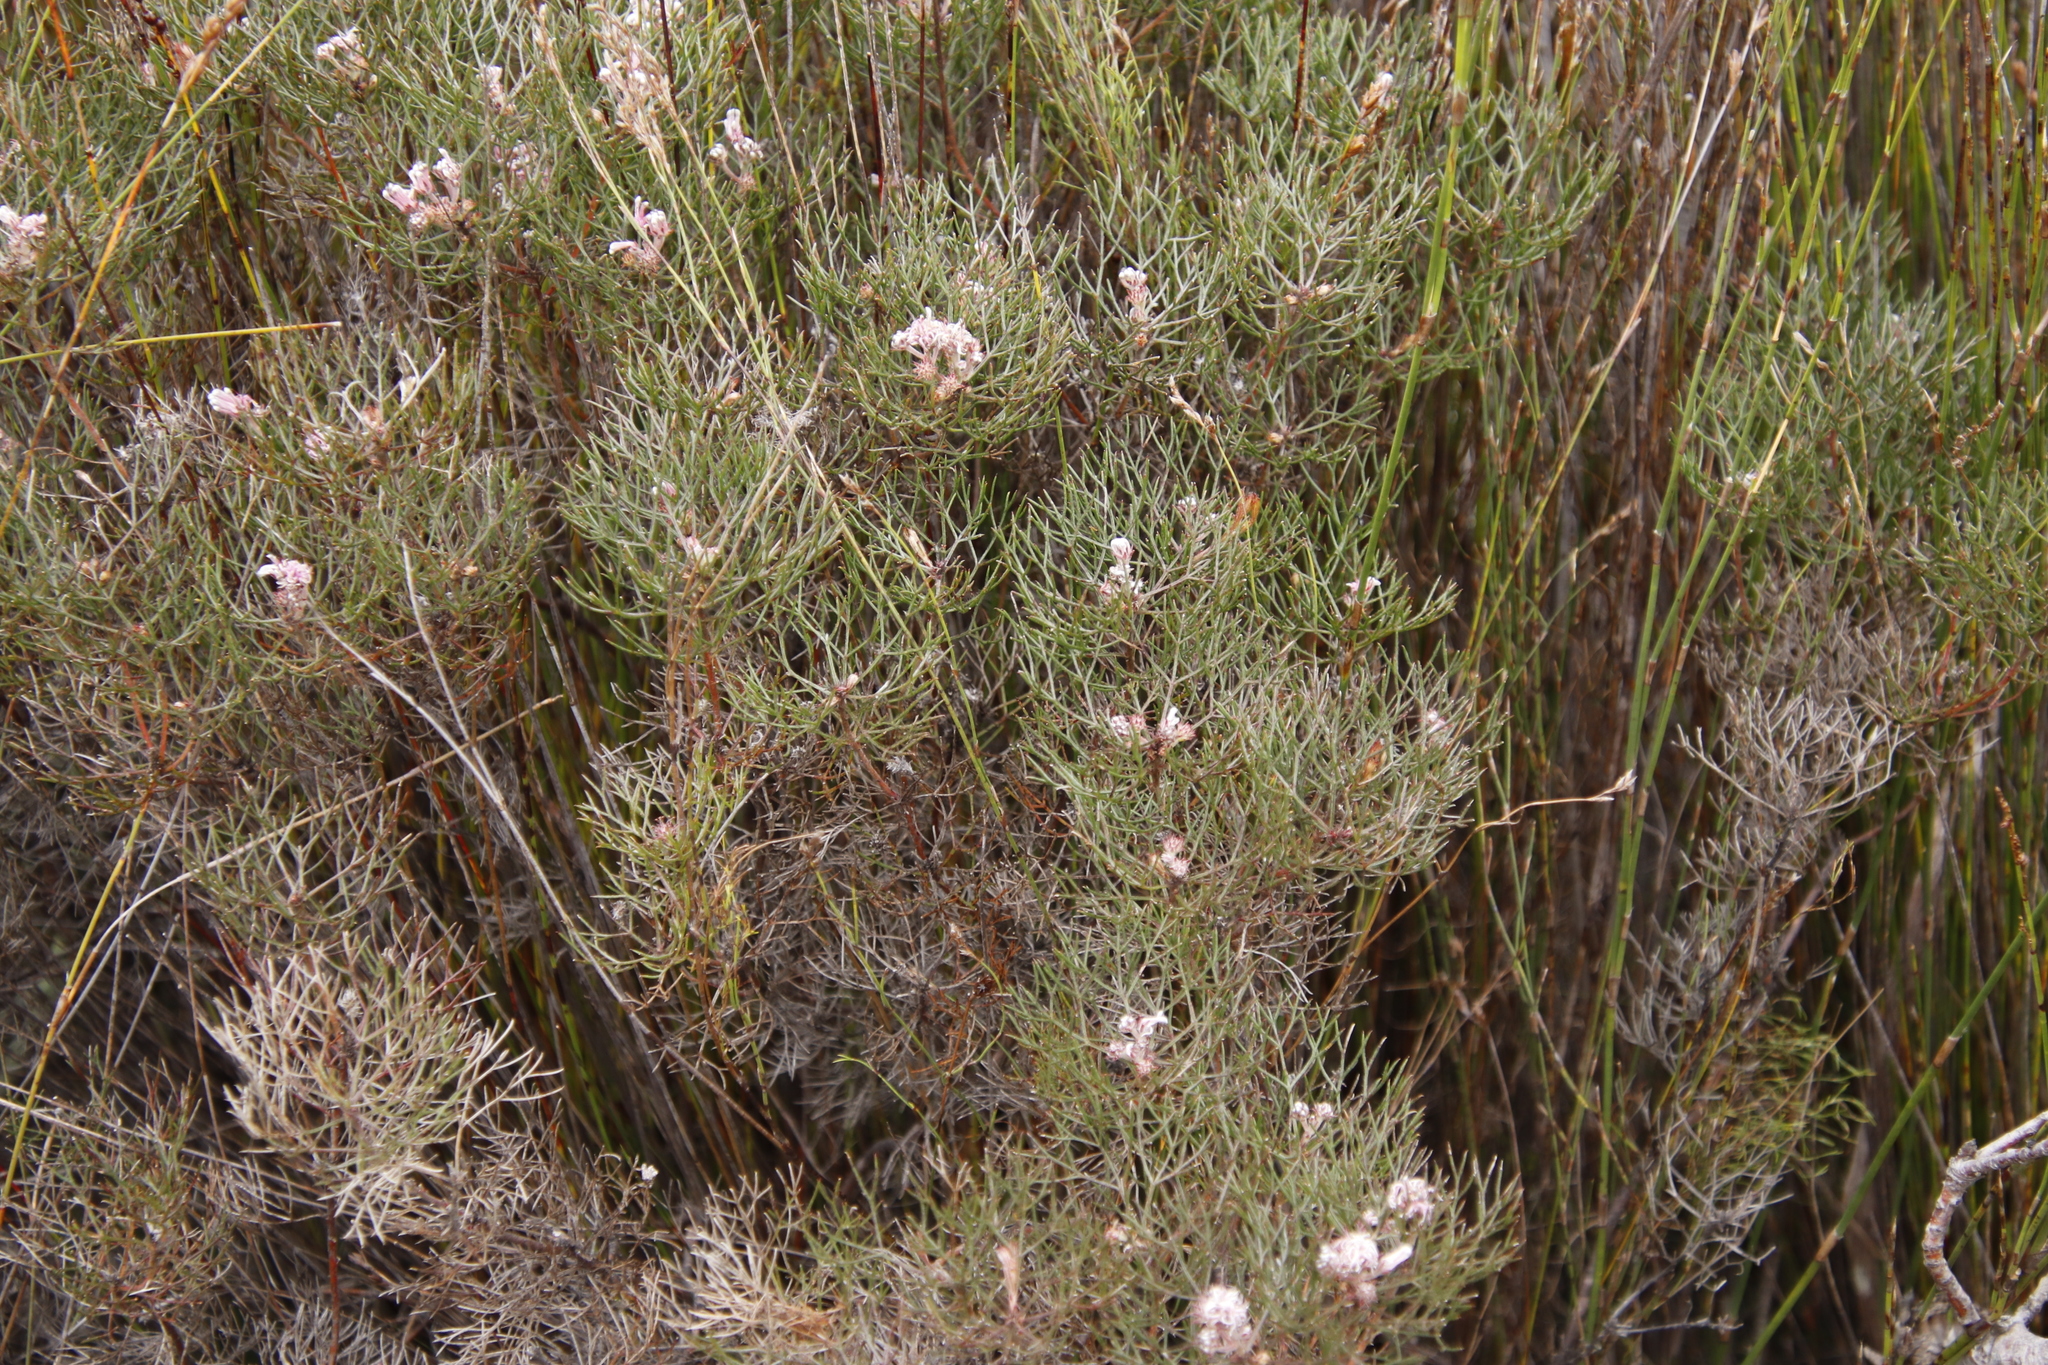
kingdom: Plantae
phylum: Tracheophyta
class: Magnoliopsida
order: Proteales
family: Proteaceae
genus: Serruria
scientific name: Serruria fasciflora
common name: Common pin spiderhead
